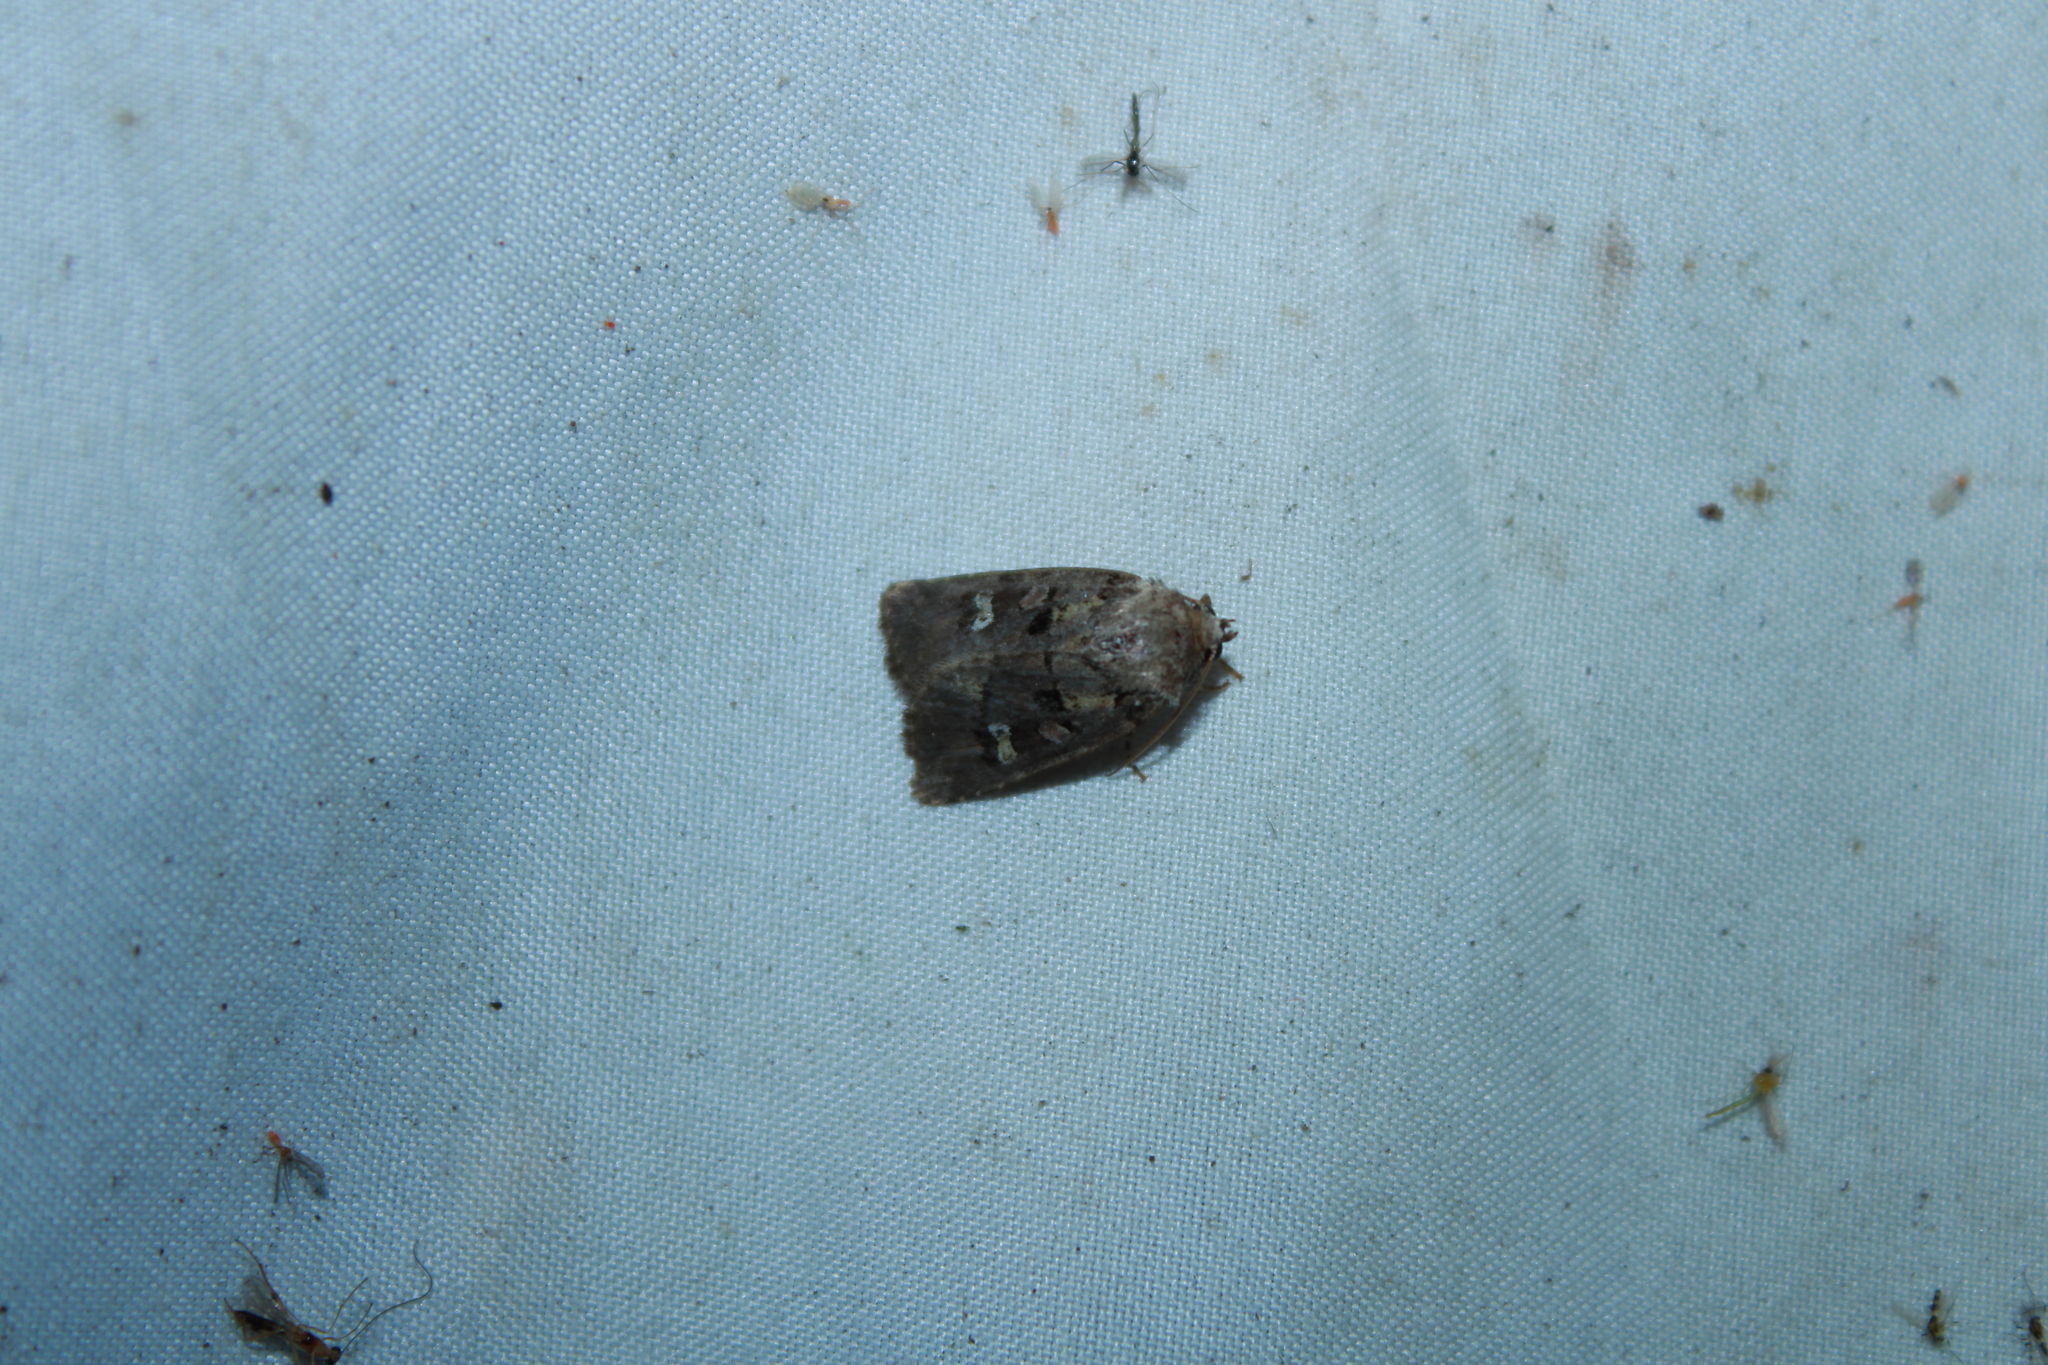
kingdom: Animalia
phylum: Arthropoda
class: Insecta
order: Lepidoptera
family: Noctuidae
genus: Lacinipolia
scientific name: Lacinipolia renigera
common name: Kidney-spotted minor
